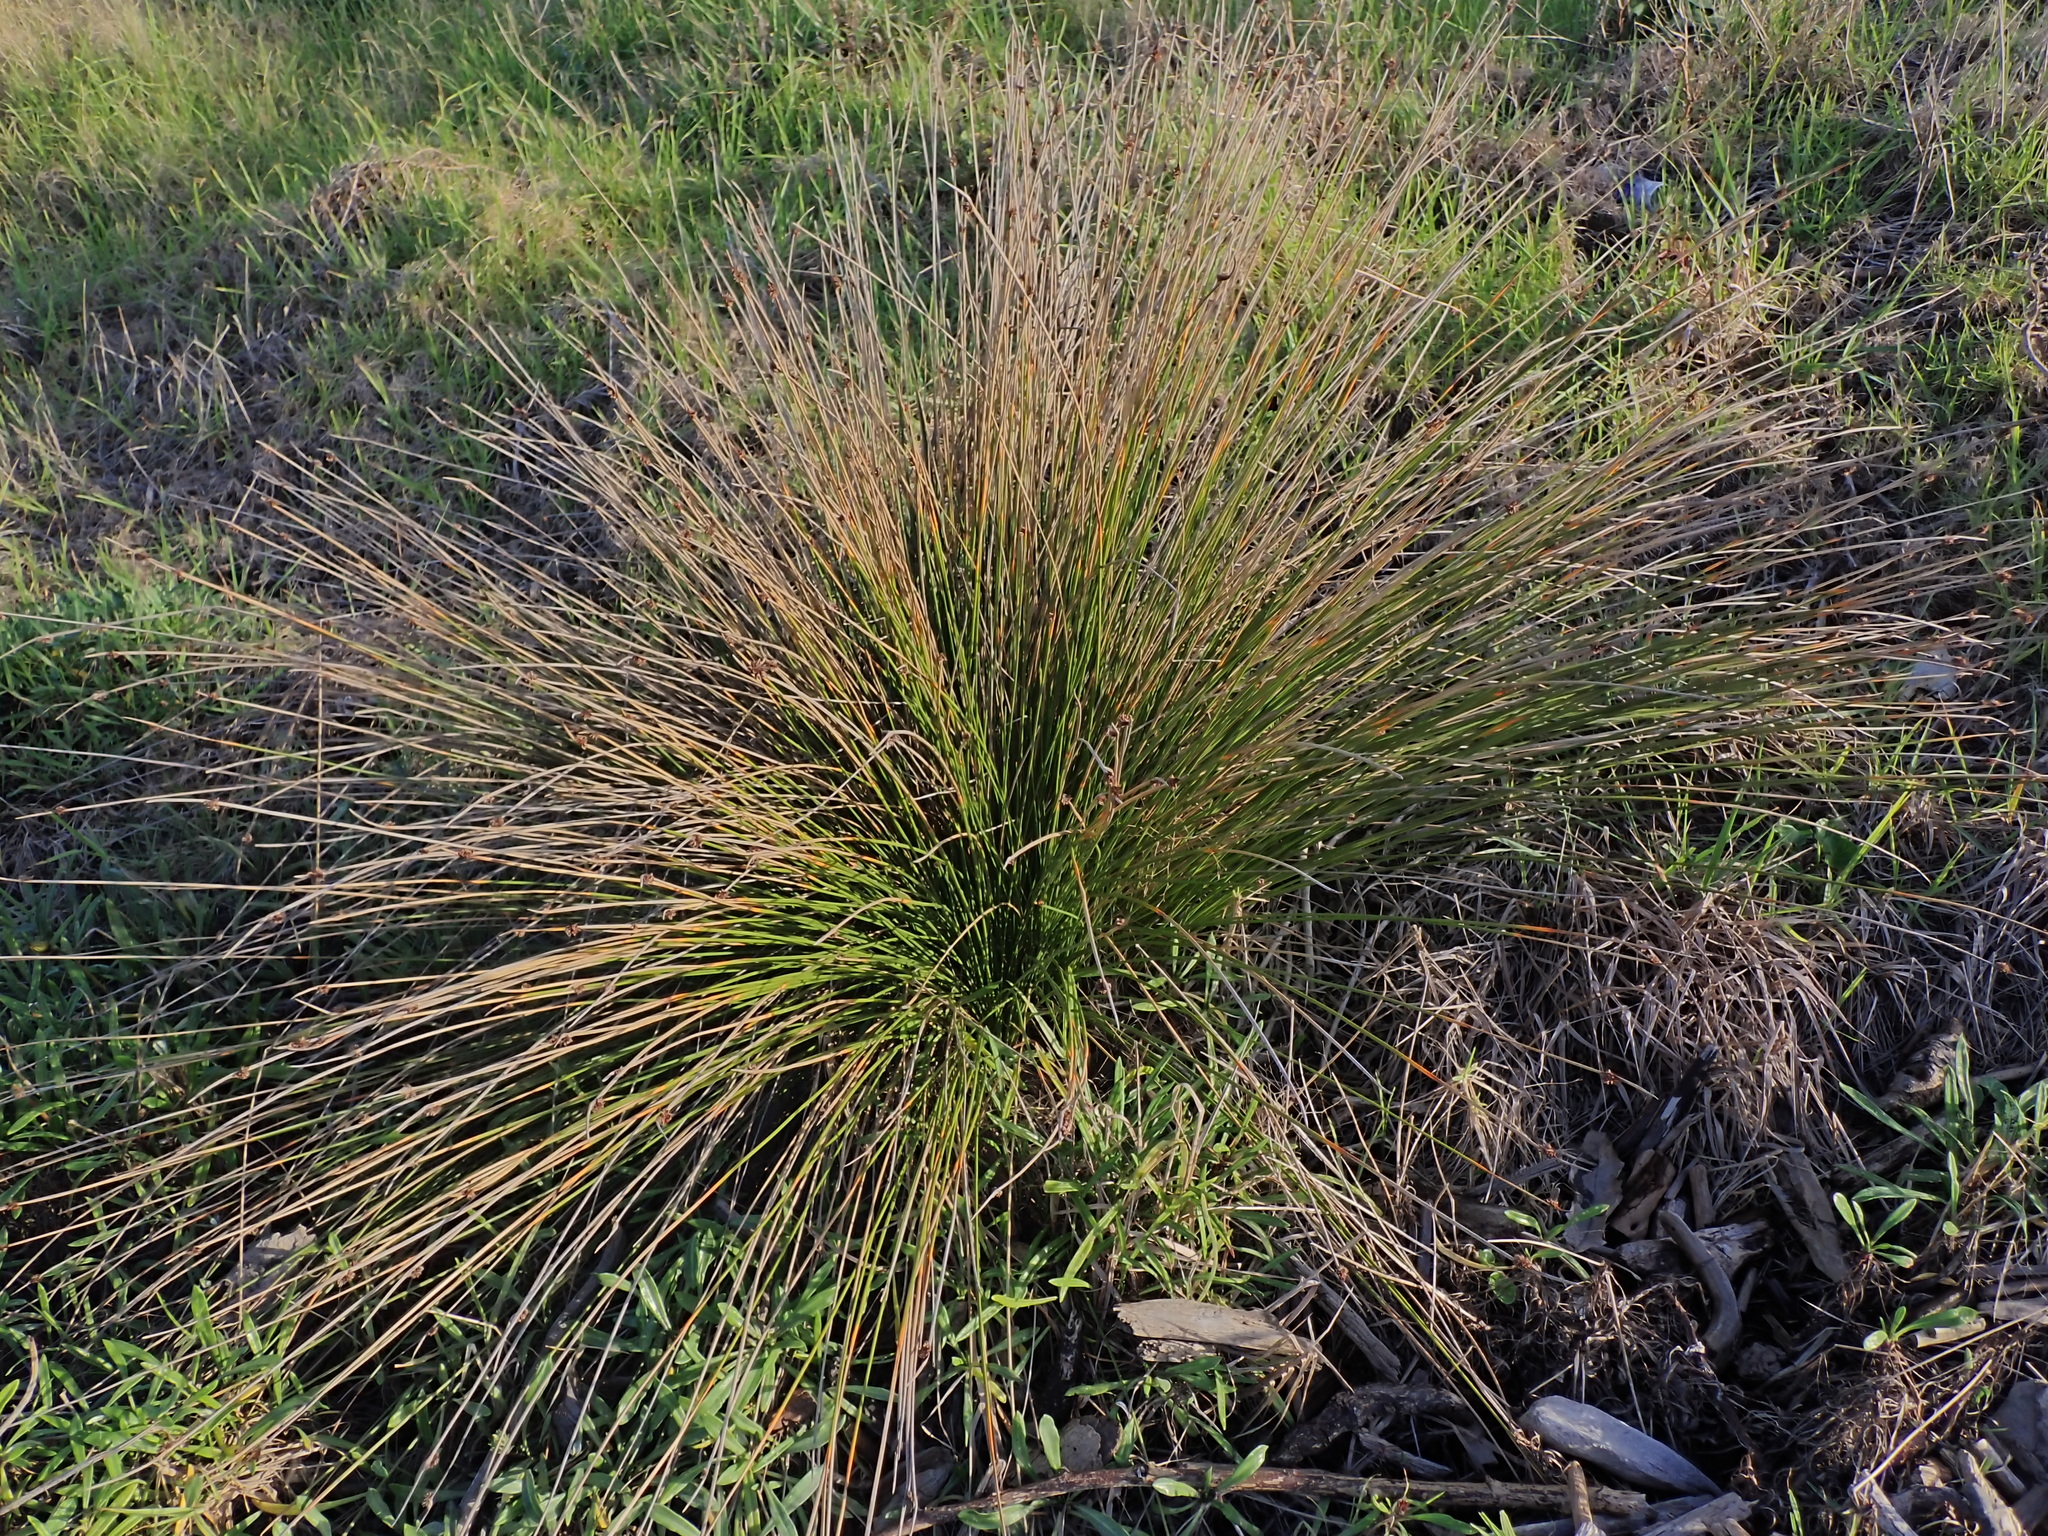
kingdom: Plantae
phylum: Tracheophyta
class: Liliopsida
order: Poales
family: Cyperaceae
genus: Ficinia
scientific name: Ficinia nodosa
